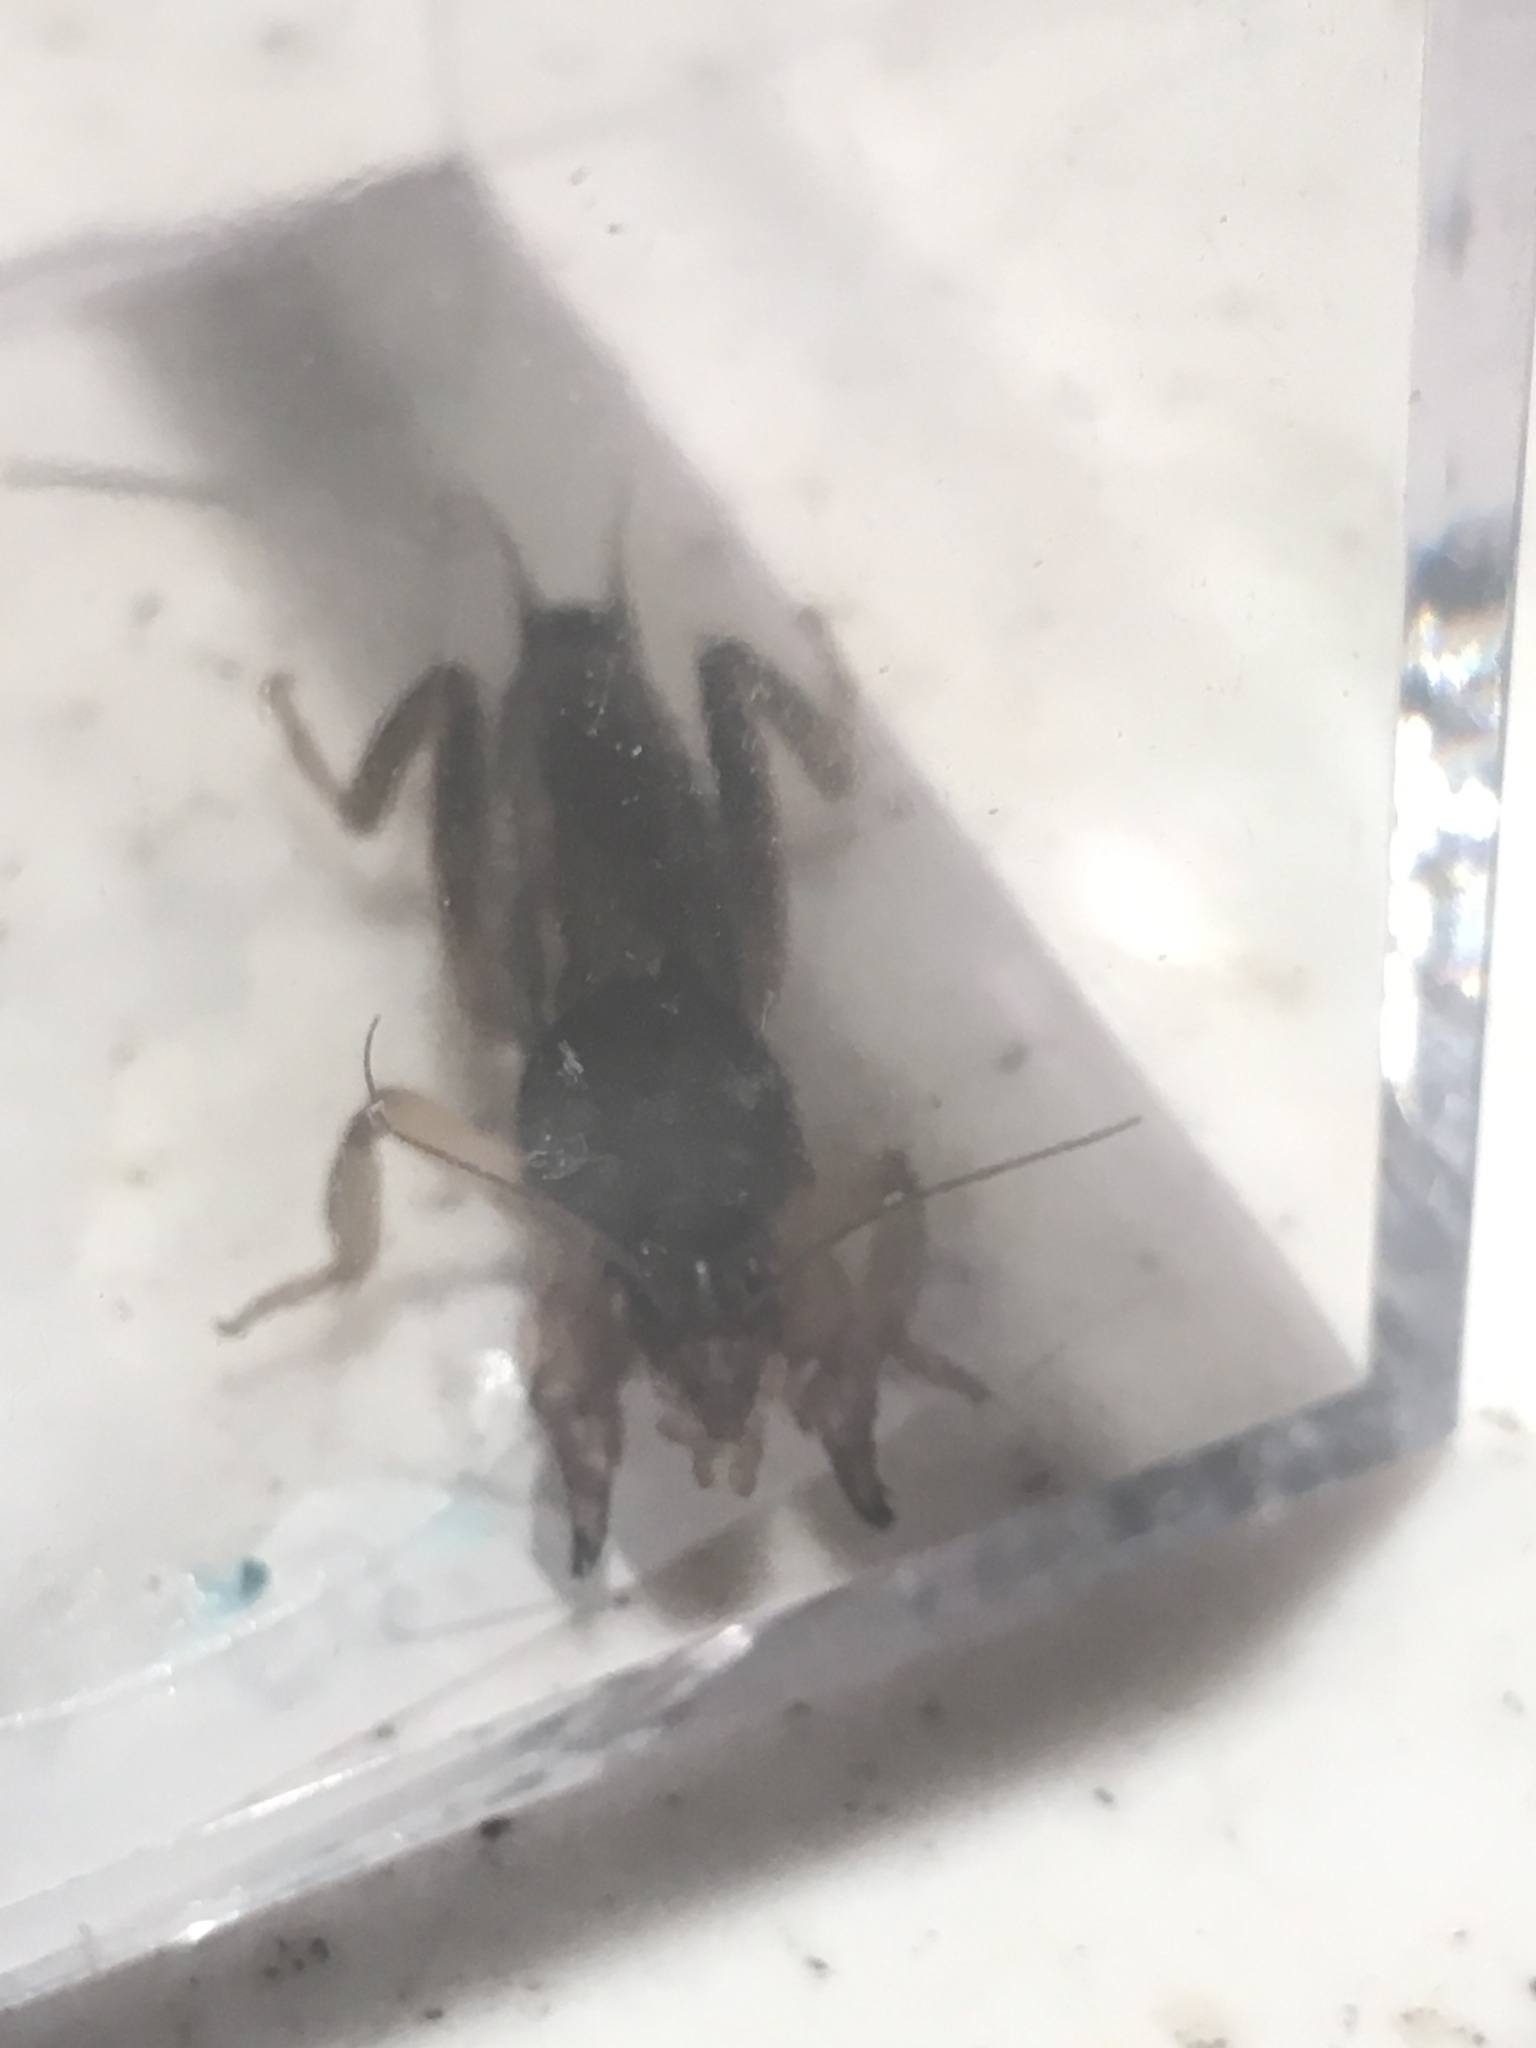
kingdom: Animalia
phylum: Arthropoda
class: Insecta
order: Orthoptera
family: Gryllotalpidae
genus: Neoscapteriscus
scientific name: Neoscapteriscus borellii
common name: Southern mole cricket
